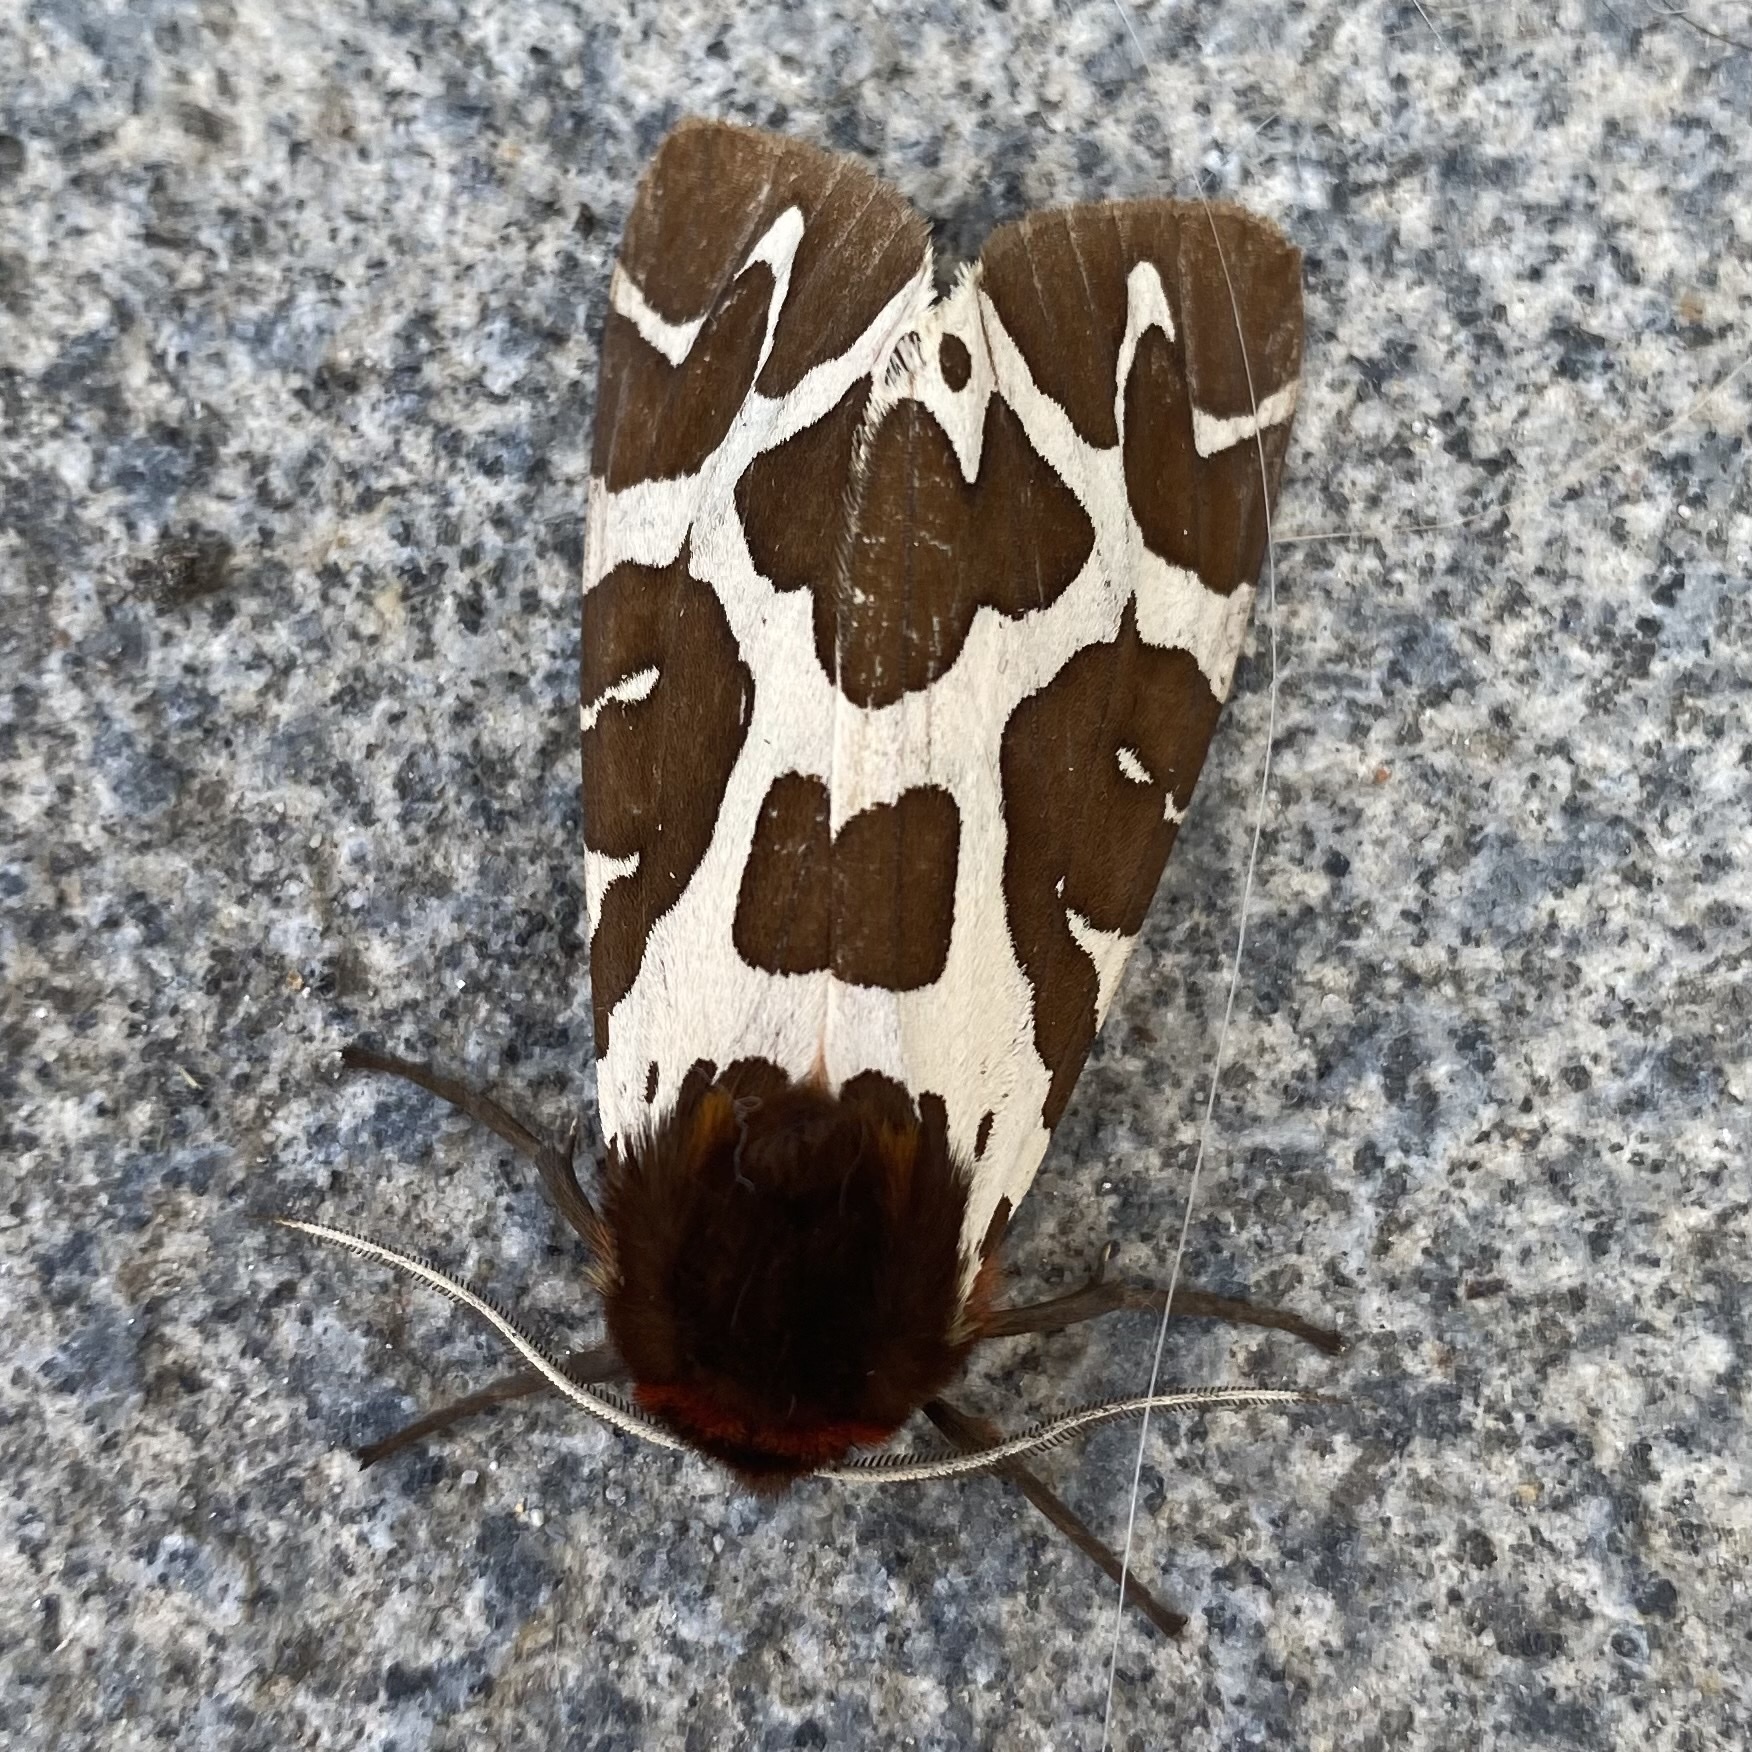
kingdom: Animalia
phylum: Arthropoda
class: Insecta
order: Lepidoptera
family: Erebidae
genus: Arctia
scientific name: Arctia caja
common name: Garden tiger
